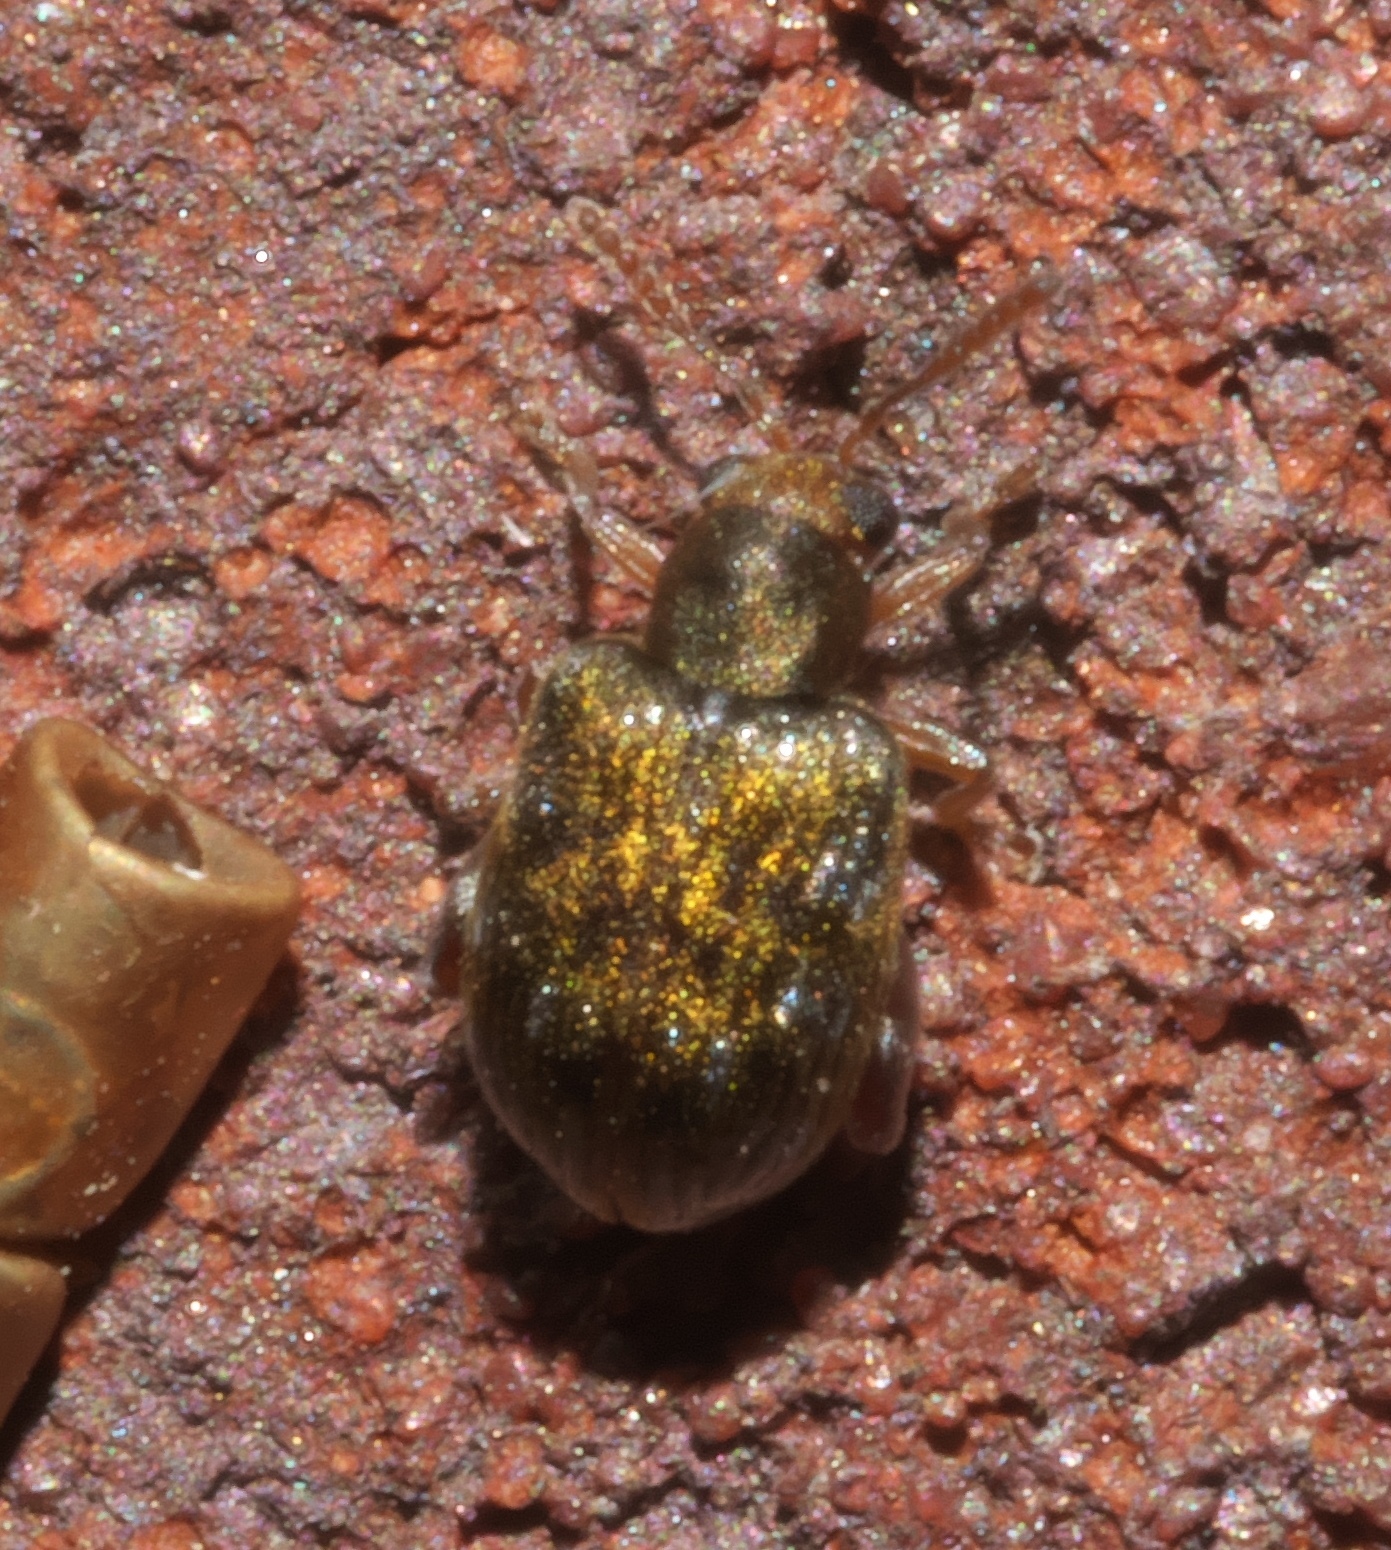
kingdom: Animalia
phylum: Arthropoda
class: Insecta
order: Coleoptera
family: Chrysomelidae
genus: Pseudolampis
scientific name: Pseudolampis guttata
